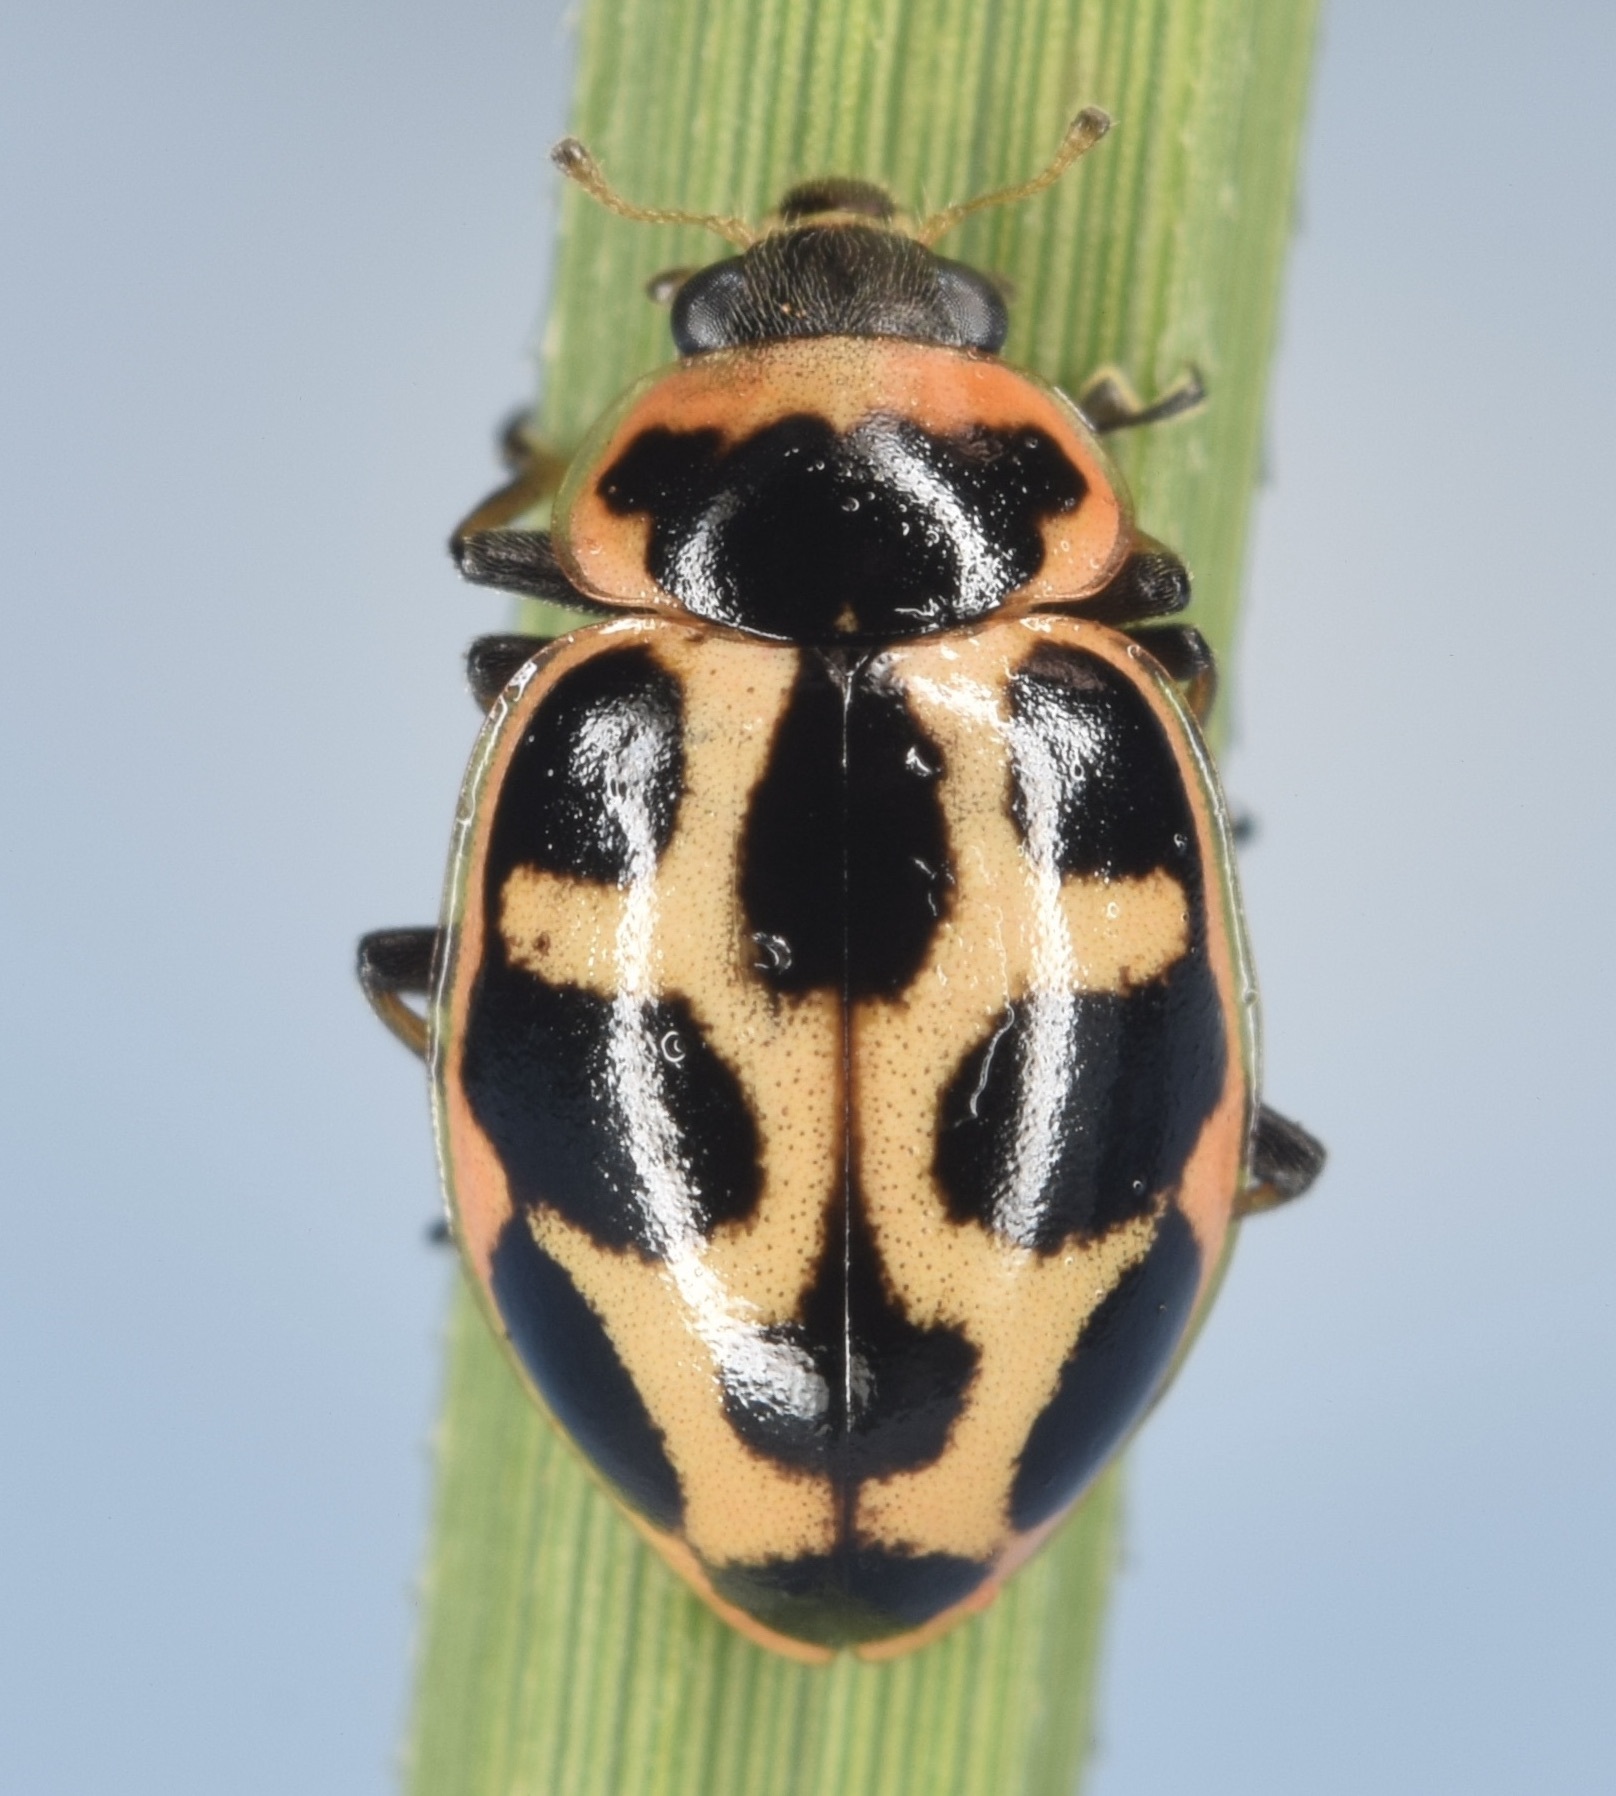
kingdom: Animalia
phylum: Arthropoda
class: Insecta
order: Coleoptera
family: Coccinellidae
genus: Naemia
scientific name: Naemia seriata
